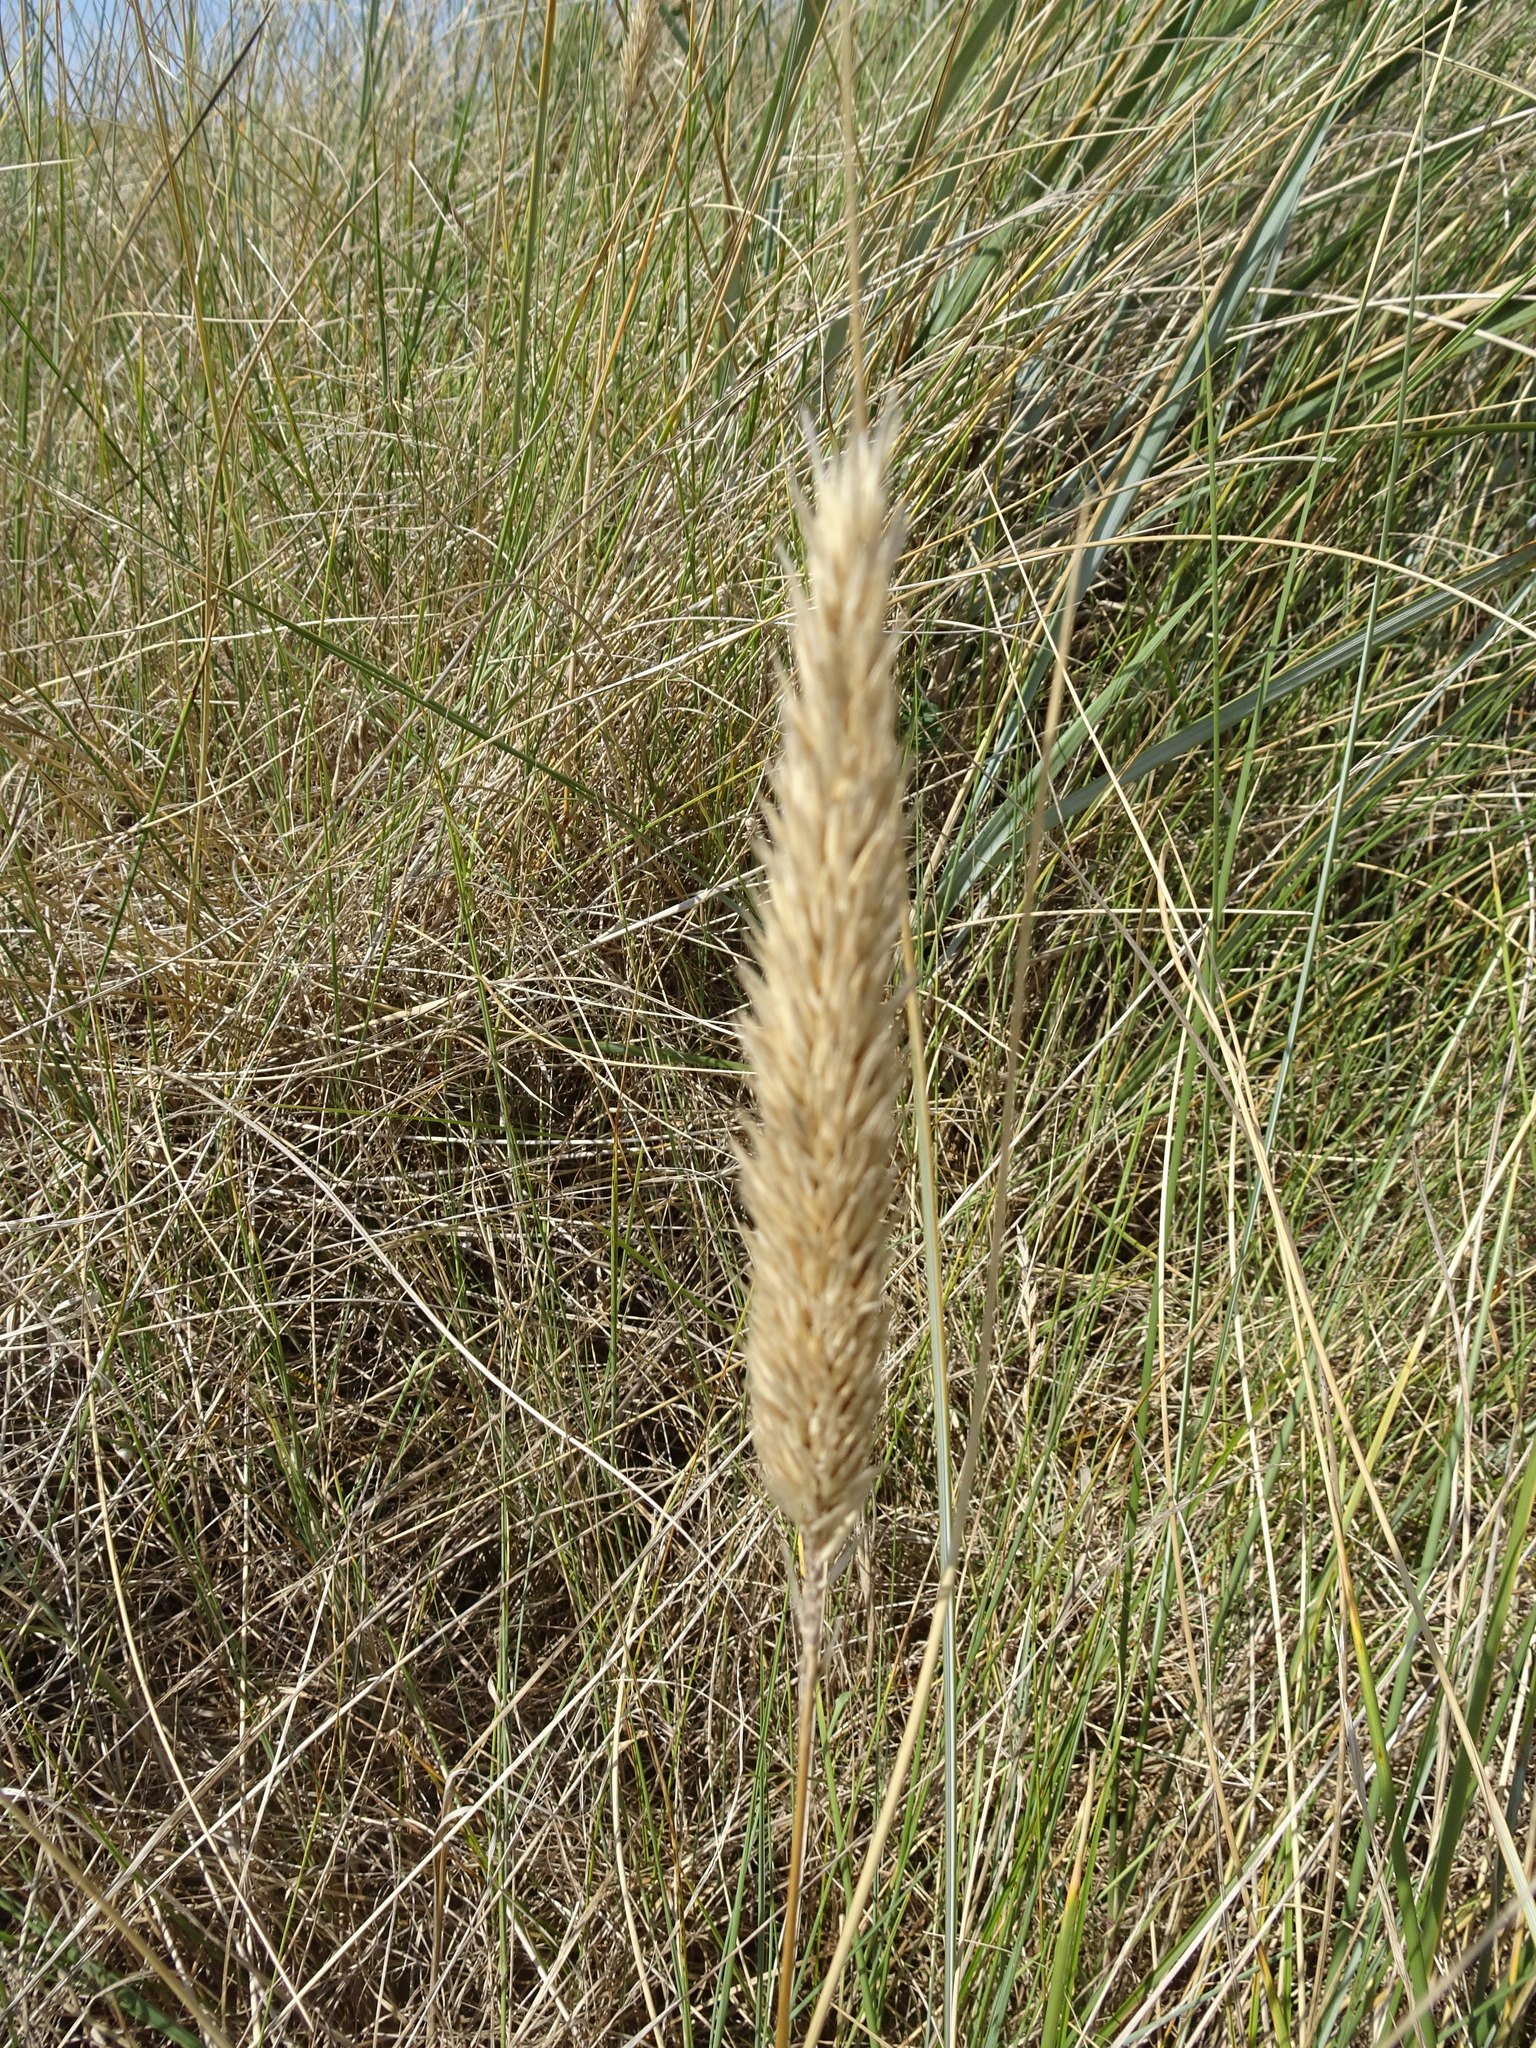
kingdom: Plantae
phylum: Tracheophyta
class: Liliopsida
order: Poales
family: Poaceae
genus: Calamagrostis
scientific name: Calamagrostis arenaria
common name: European beachgrass
